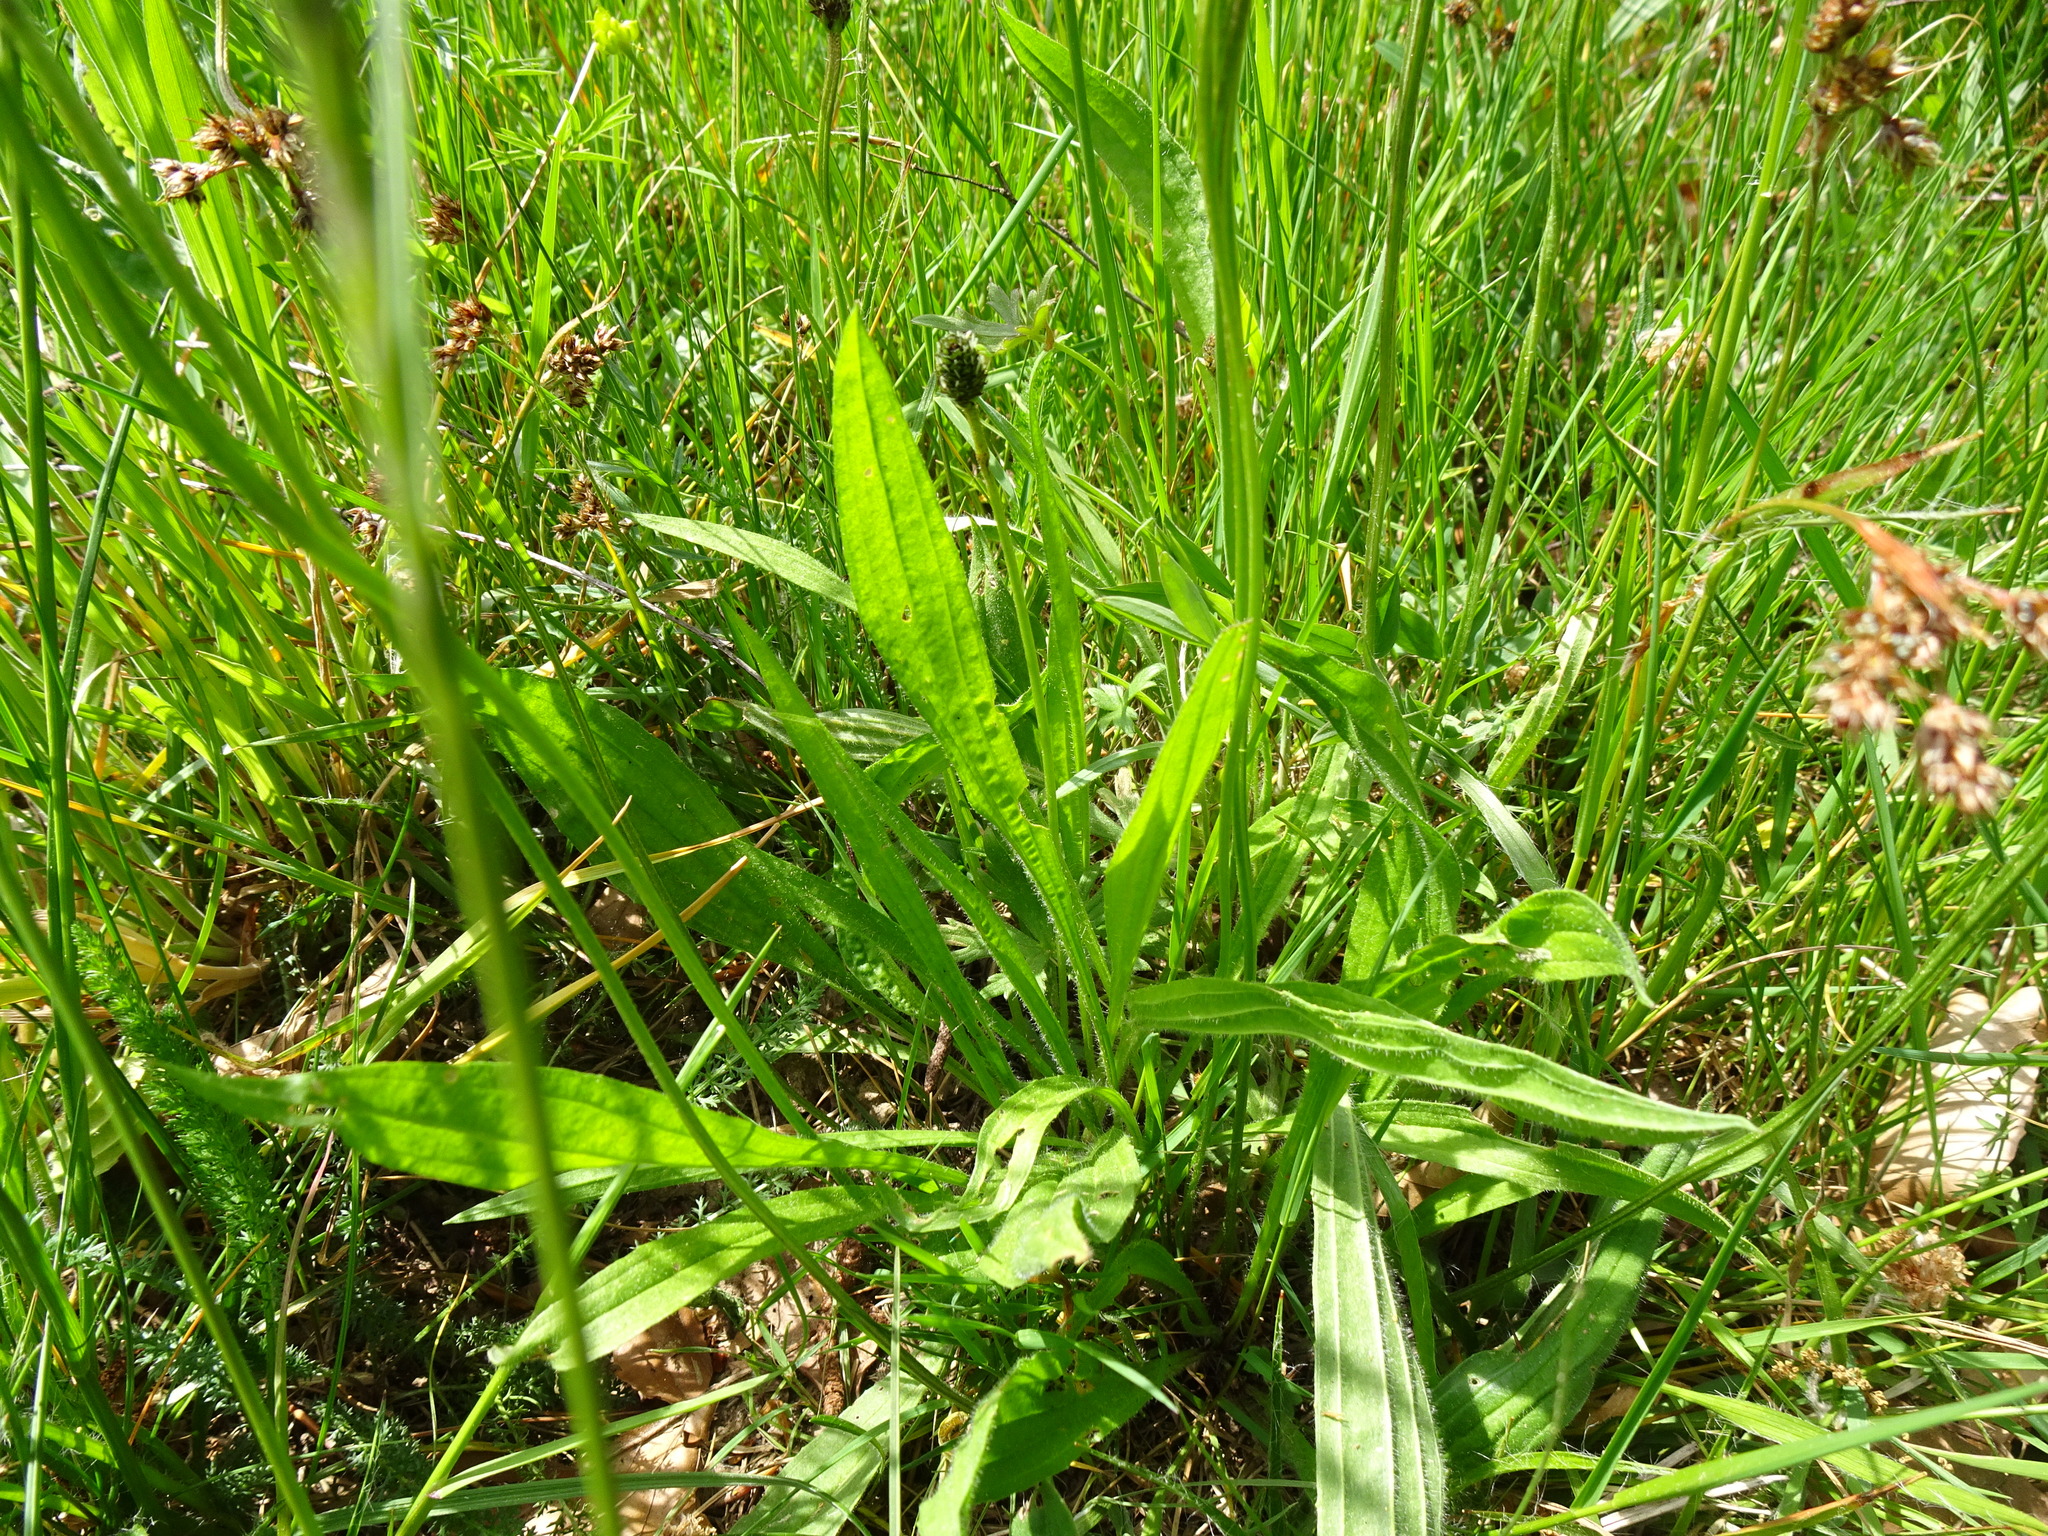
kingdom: Plantae
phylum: Tracheophyta
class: Magnoliopsida
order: Lamiales
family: Plantaginaceae
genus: Plantago
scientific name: Plantago lanceolata
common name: Ribwort plantain
